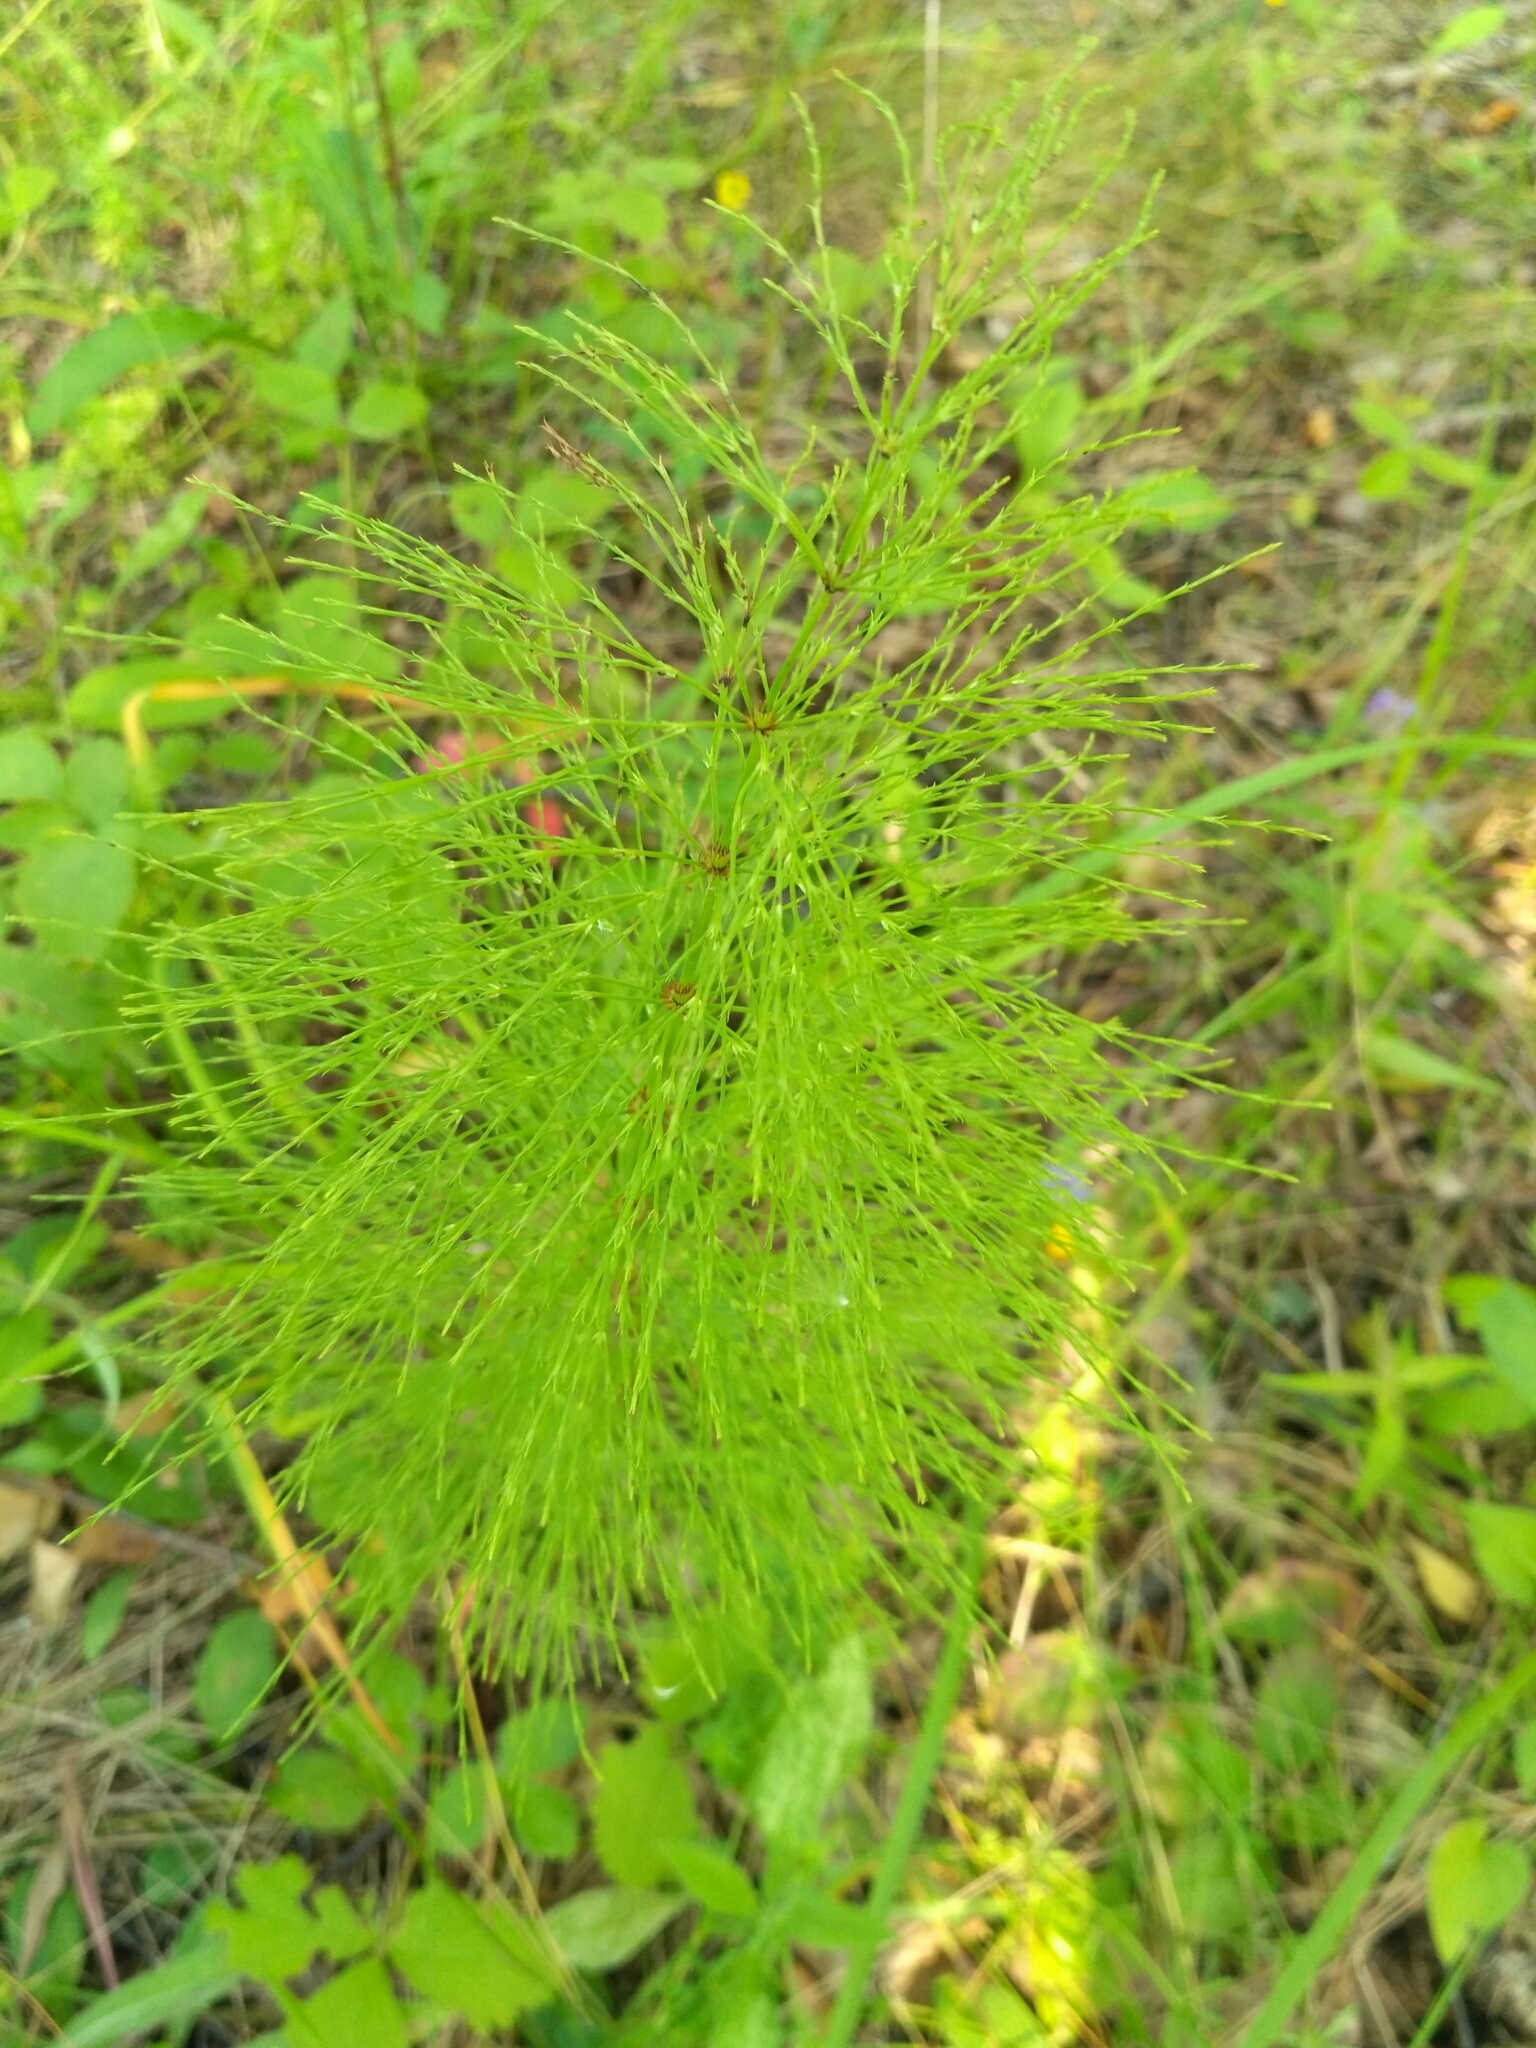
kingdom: Plantae
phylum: Tracheophyta
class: Polypodiopsida
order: Equisetales
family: Equisetaceae
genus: Equisetum
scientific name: Equisetum sylvaticum
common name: Wood horsetail
